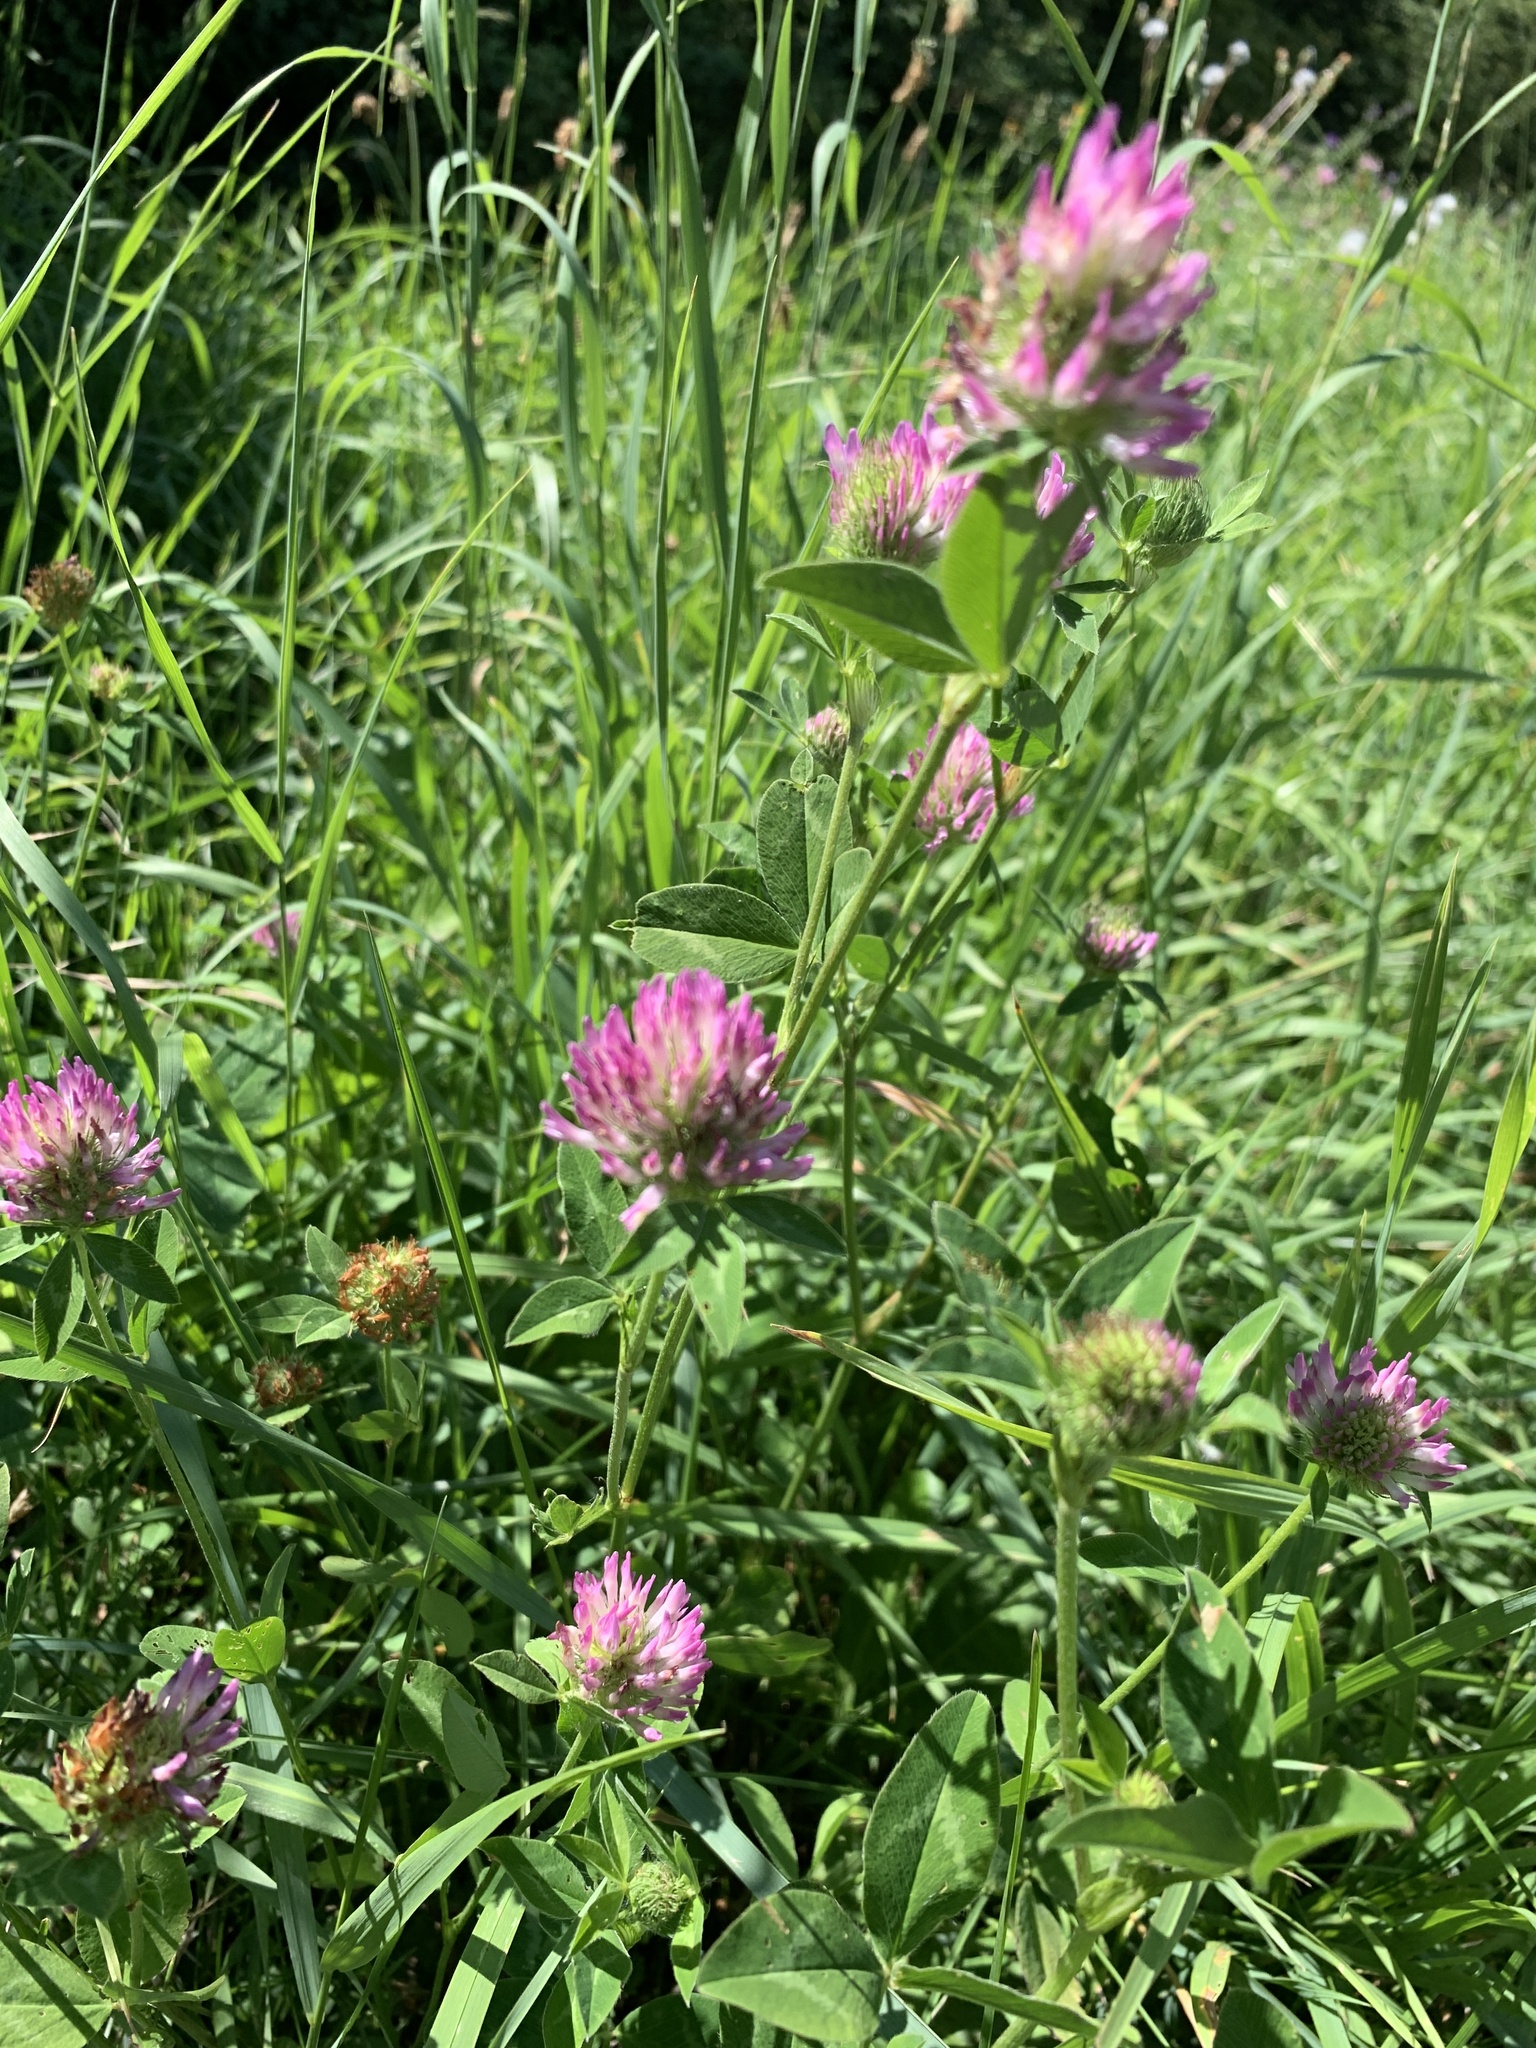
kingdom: Plantae
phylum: Tracheophyta
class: Magnoliopsida
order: Fabales
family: Fabaceae
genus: Trifolium
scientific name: Trifolium pratense
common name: Red clover
